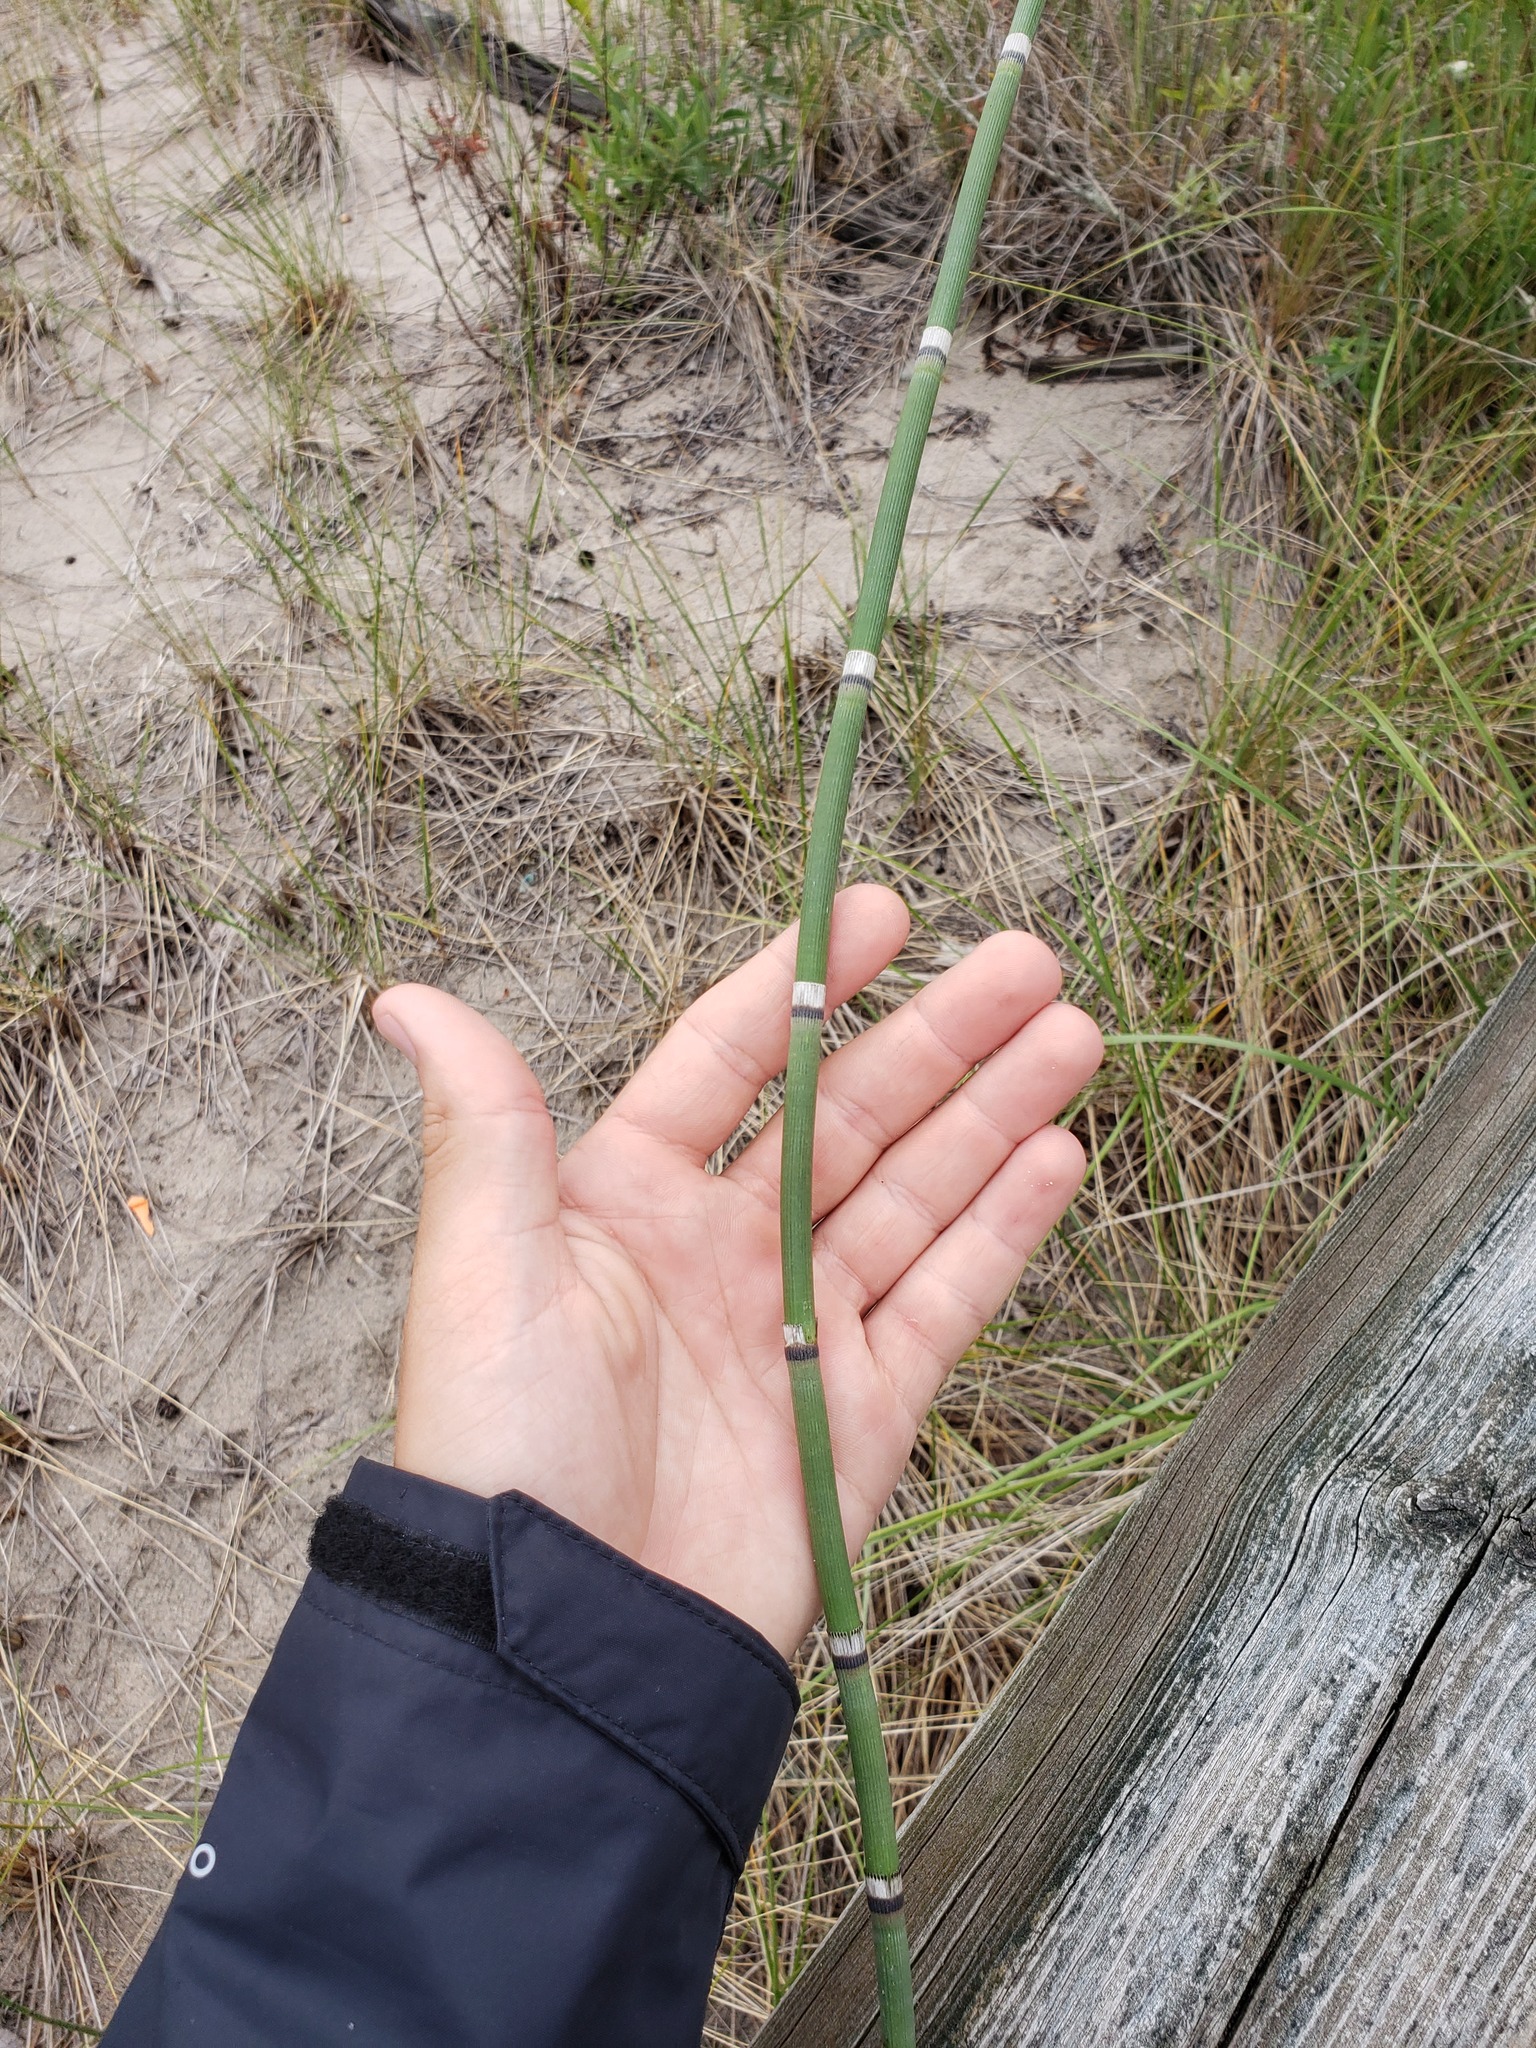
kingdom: Plantae
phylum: Tracheophyta
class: Polypodiopsida
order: Equisetales
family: Equisetaceae
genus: Equisetum
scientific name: Equisetum hyemale
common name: Rough horsetail
